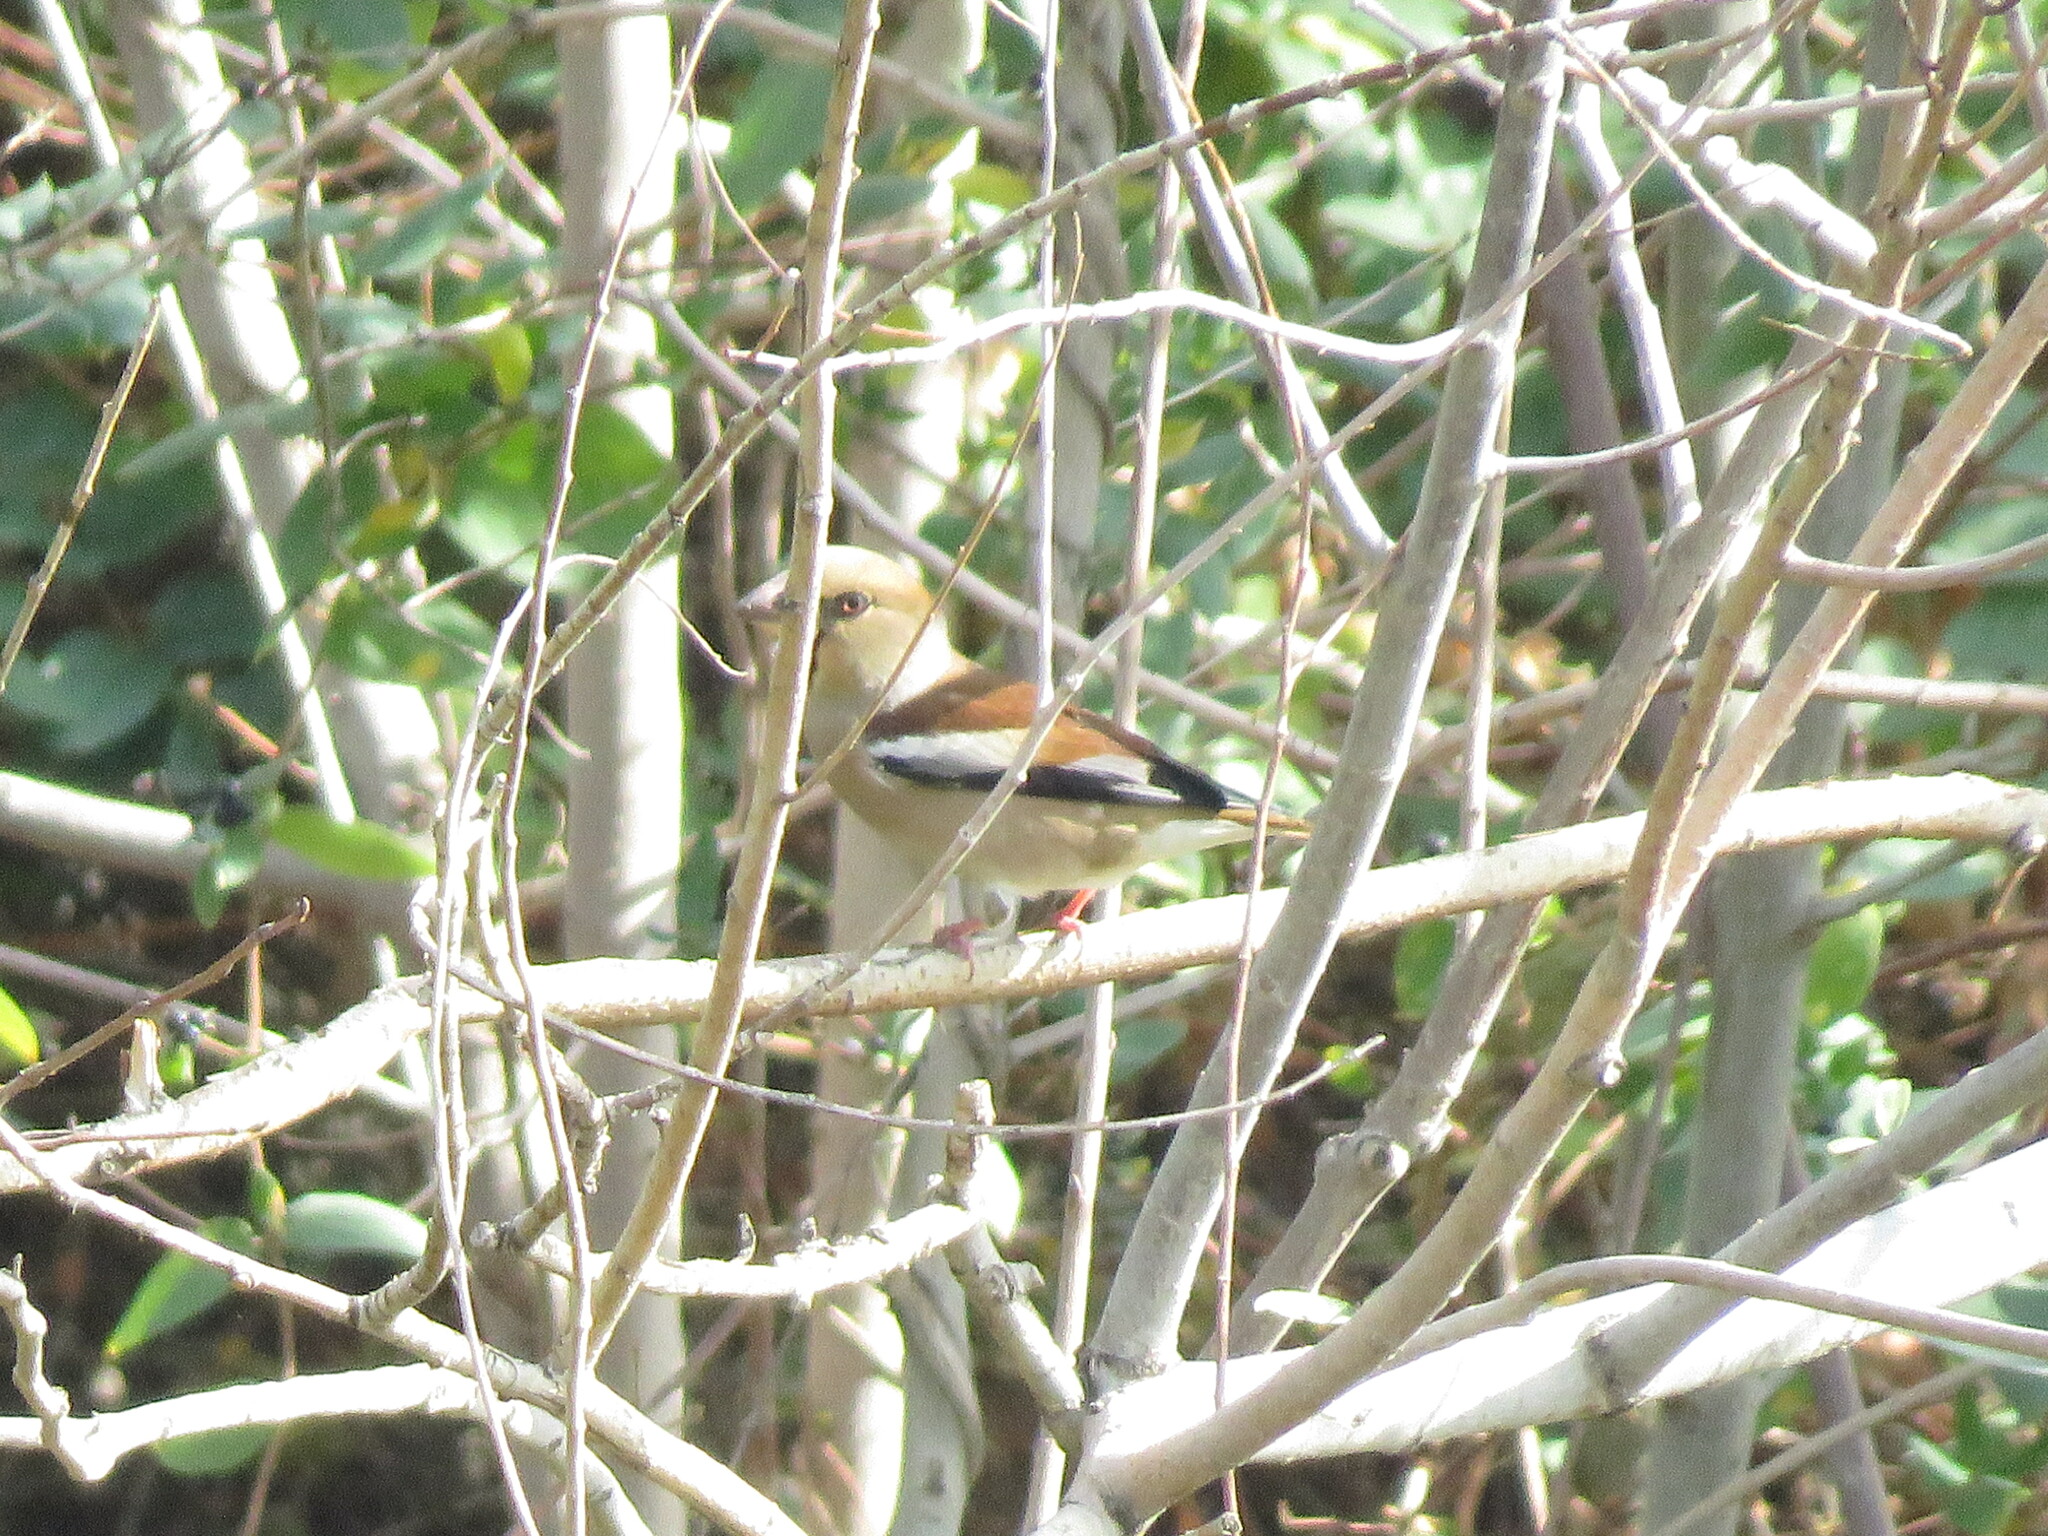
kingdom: Animalia
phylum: Chordata
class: Aves
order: Passeriformes
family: Fringillidae
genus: Coccothraustes
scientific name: Coccothraustes coccothraustes
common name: Hawfinch
